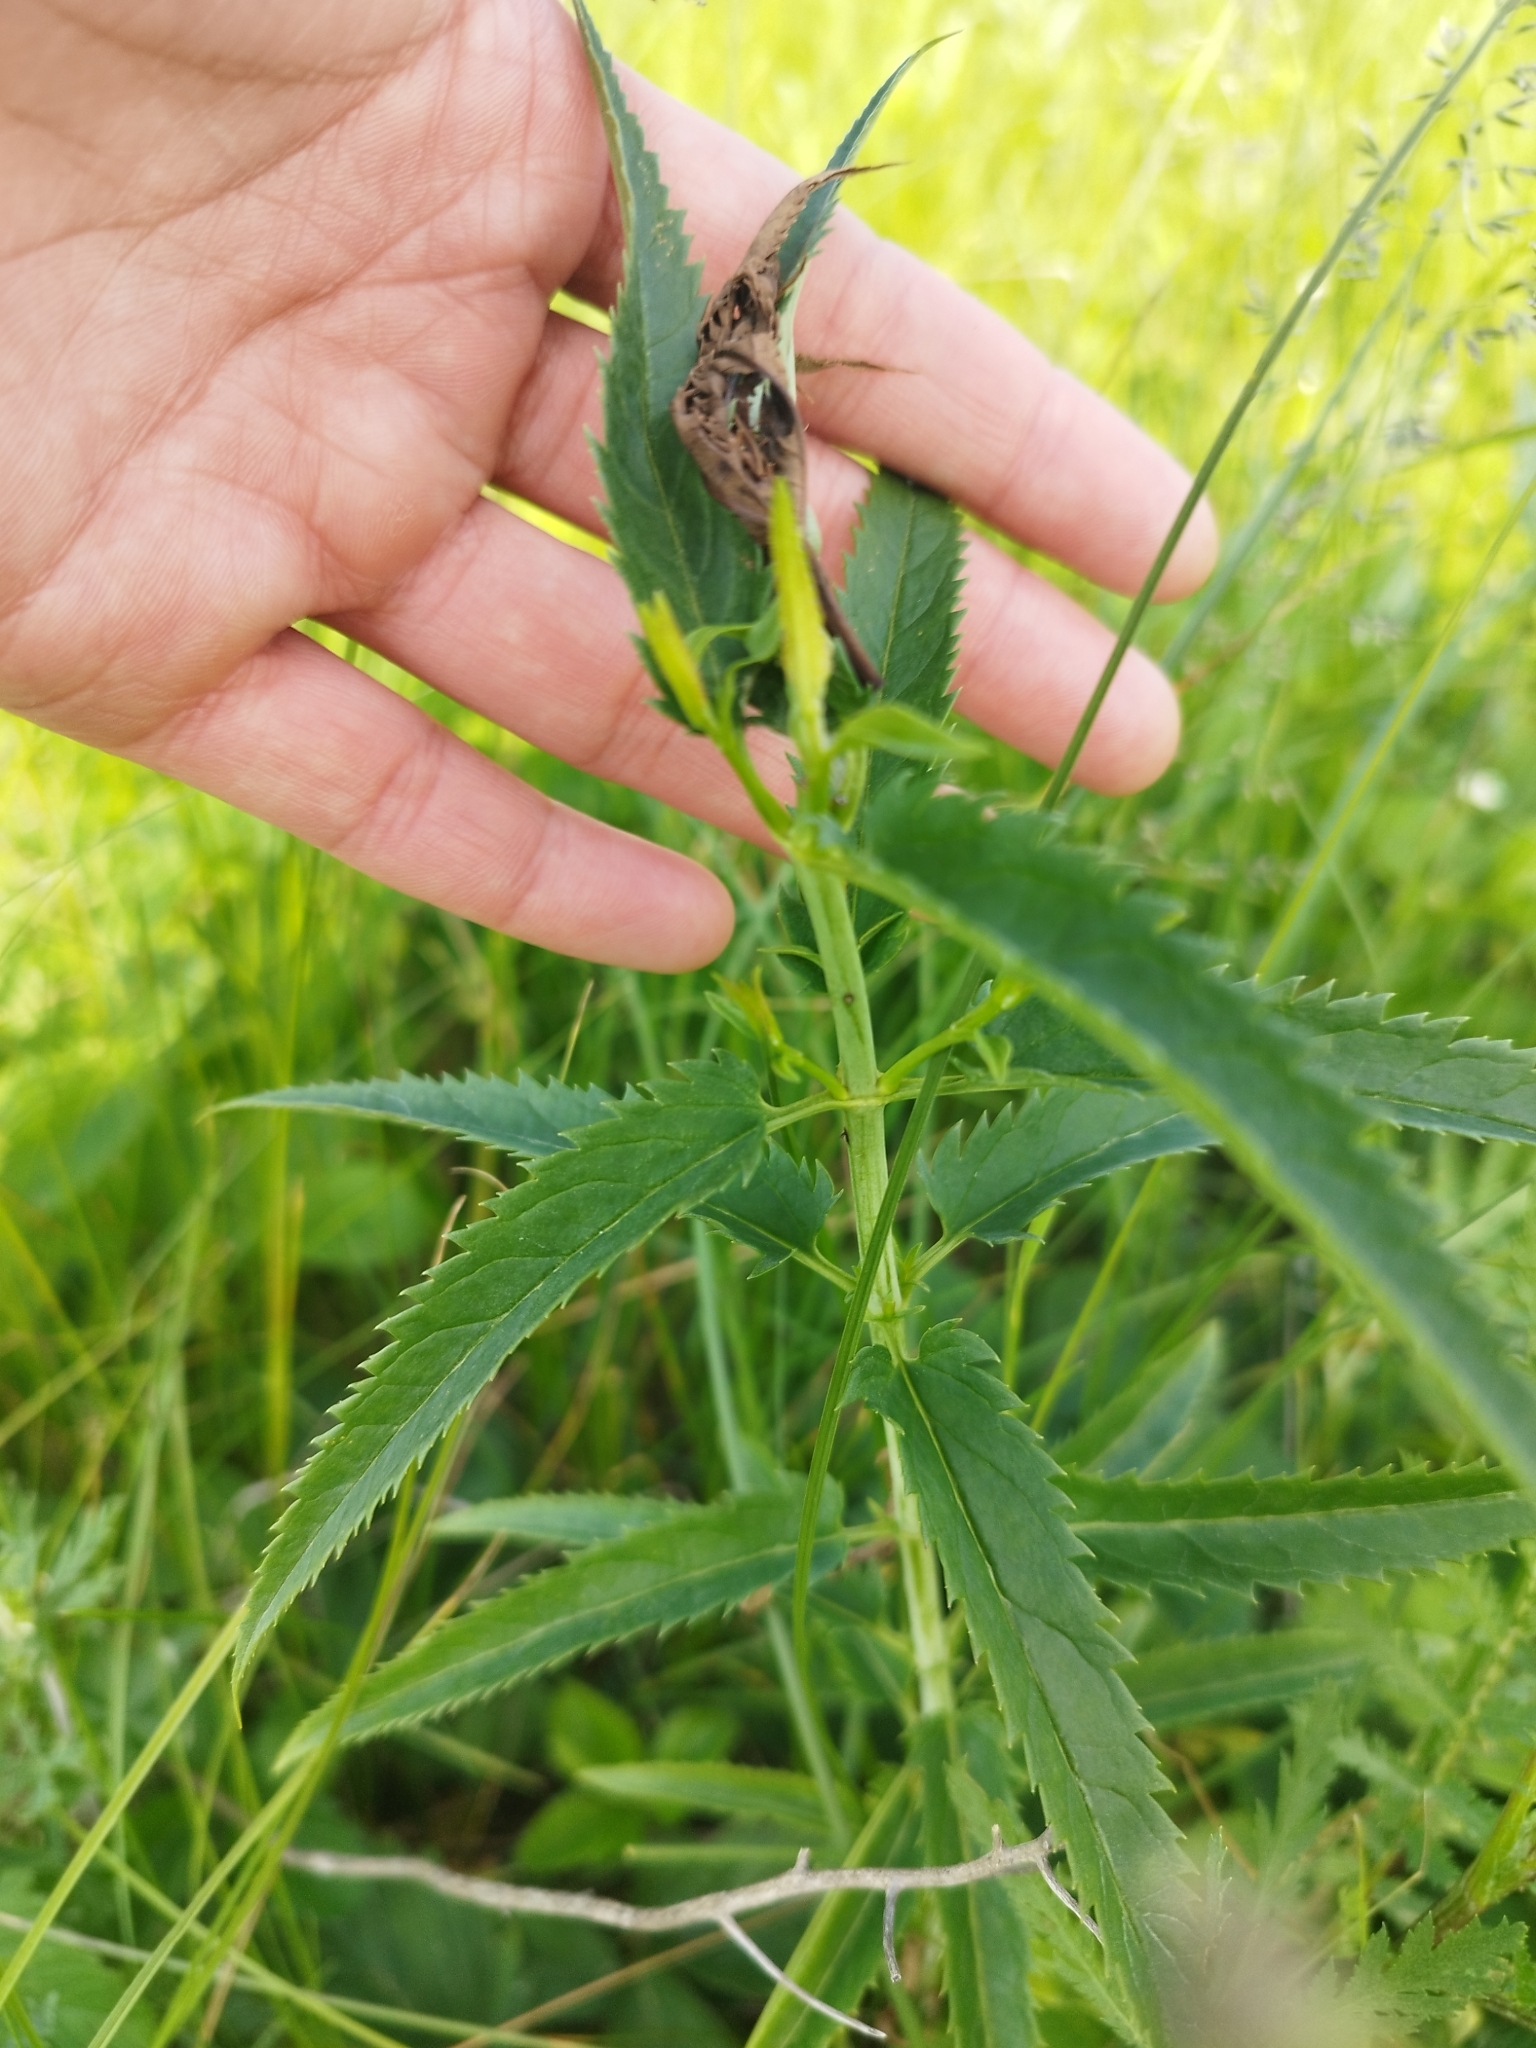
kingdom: Plantae
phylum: Tracheophyta
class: Magnoliopsida
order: Lamiales
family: Plantaginaceae
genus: Veronica
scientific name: Veronica longifolia
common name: Garden speedwell
